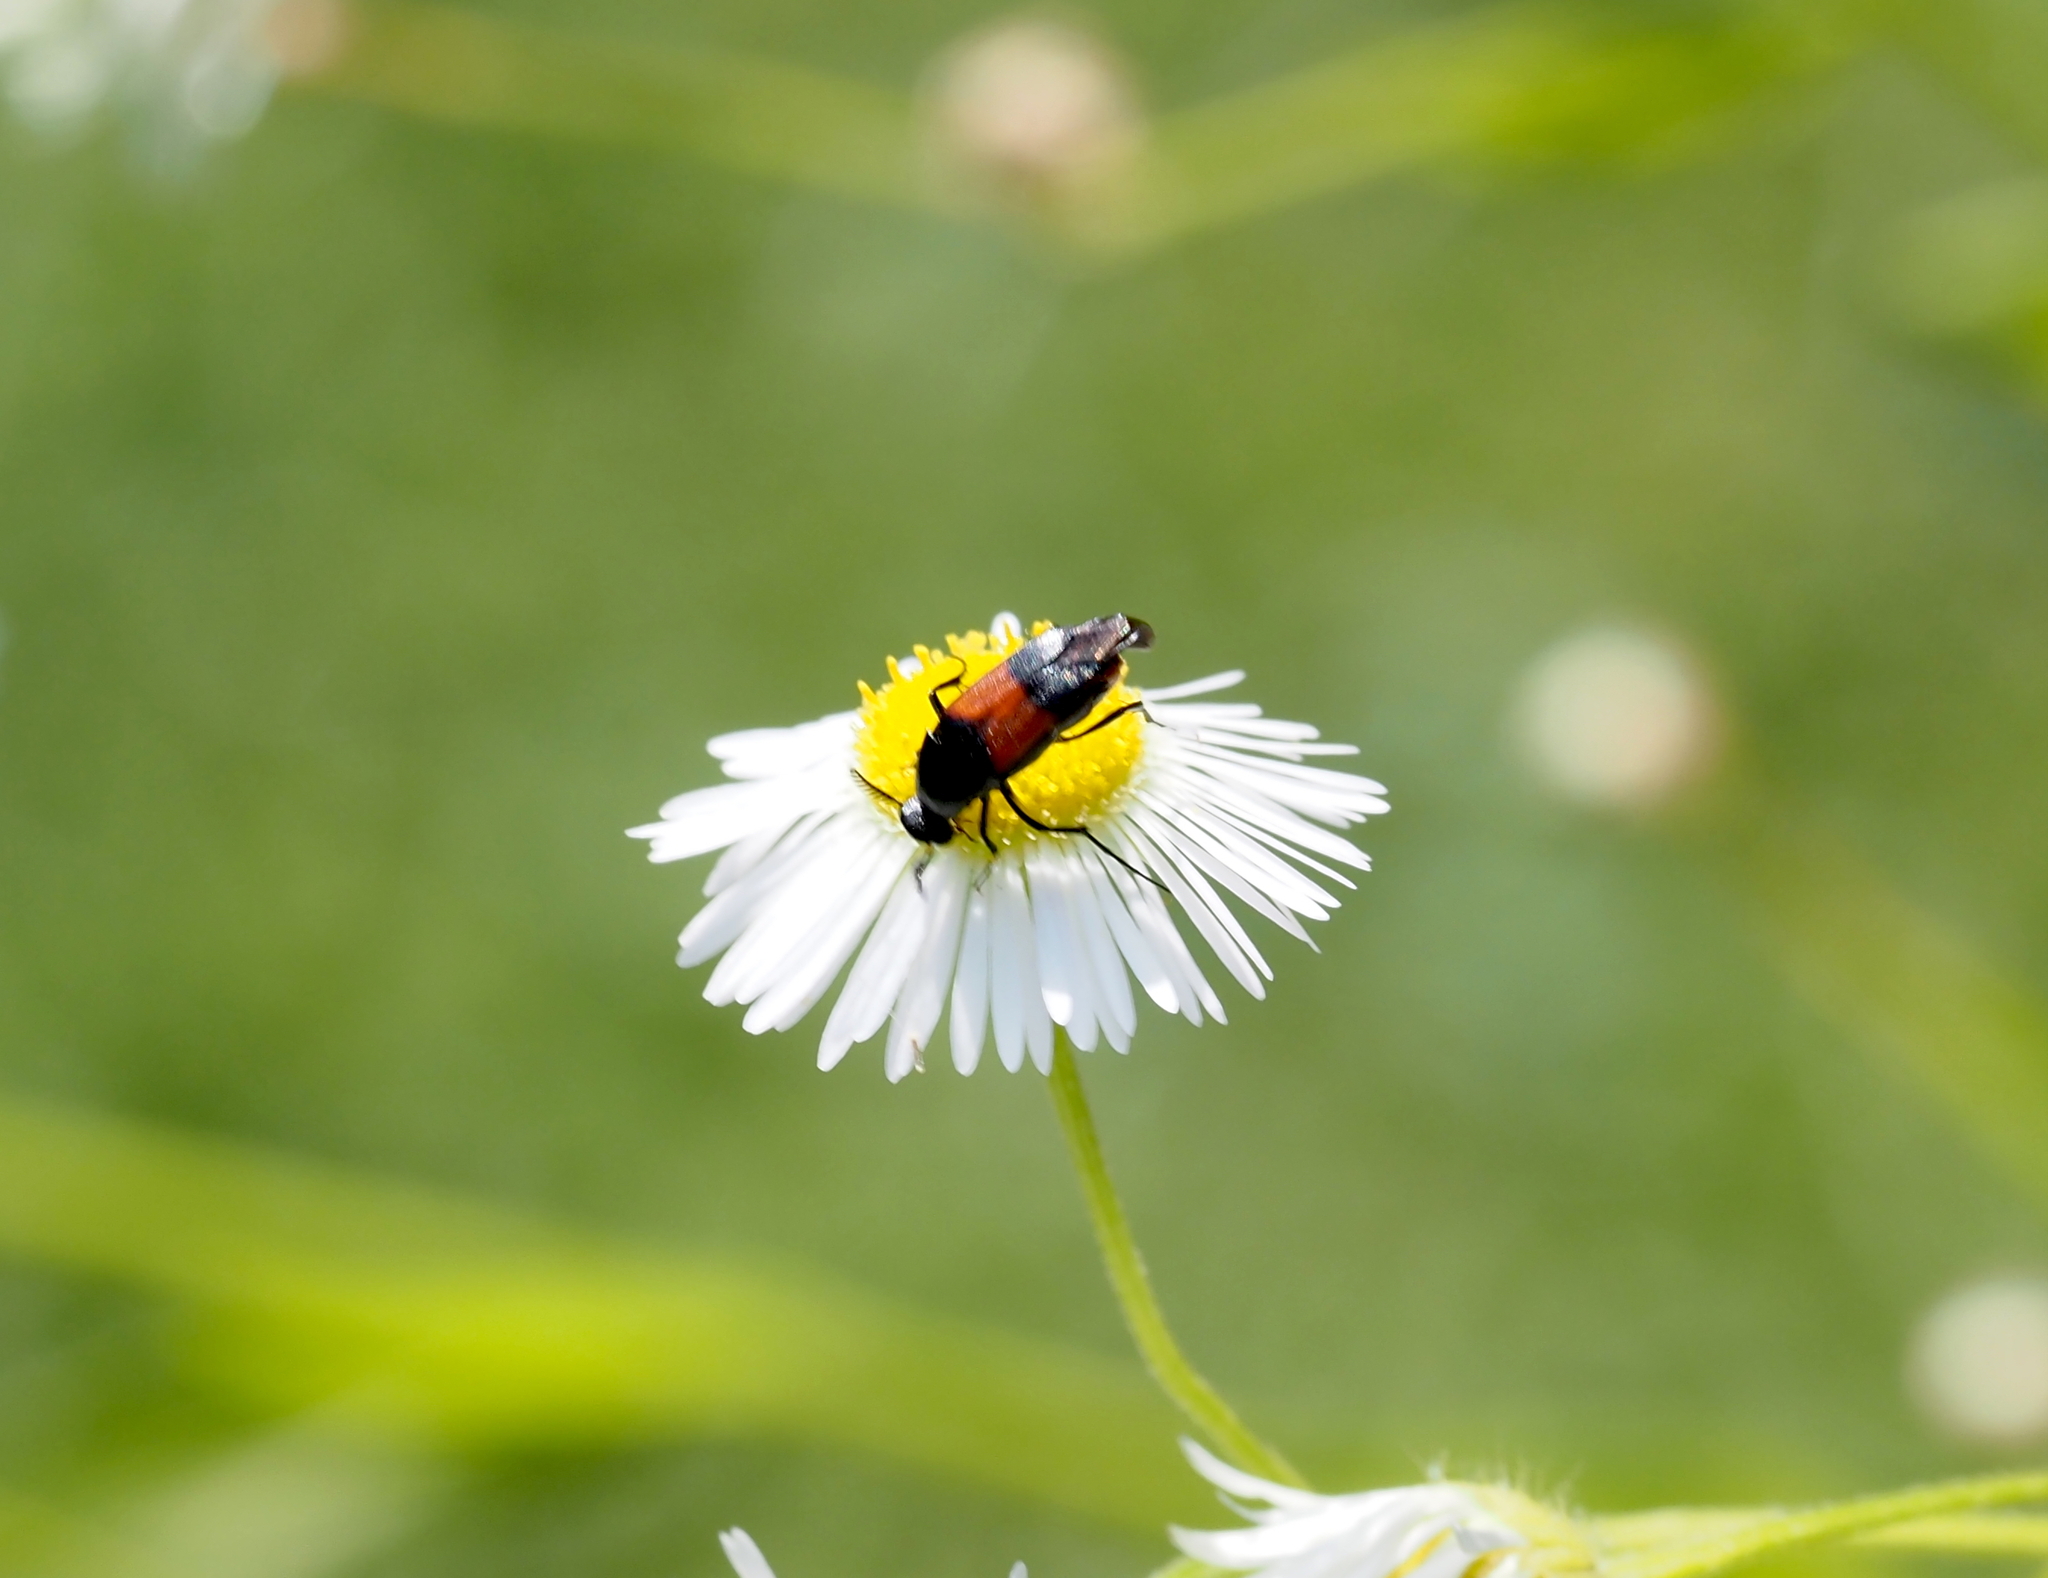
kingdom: Animalia
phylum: Arthropoda
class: Insecta
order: Coleoptera
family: Ripiphoridae
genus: Macrosiagon
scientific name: Macrosiagon cruentum
